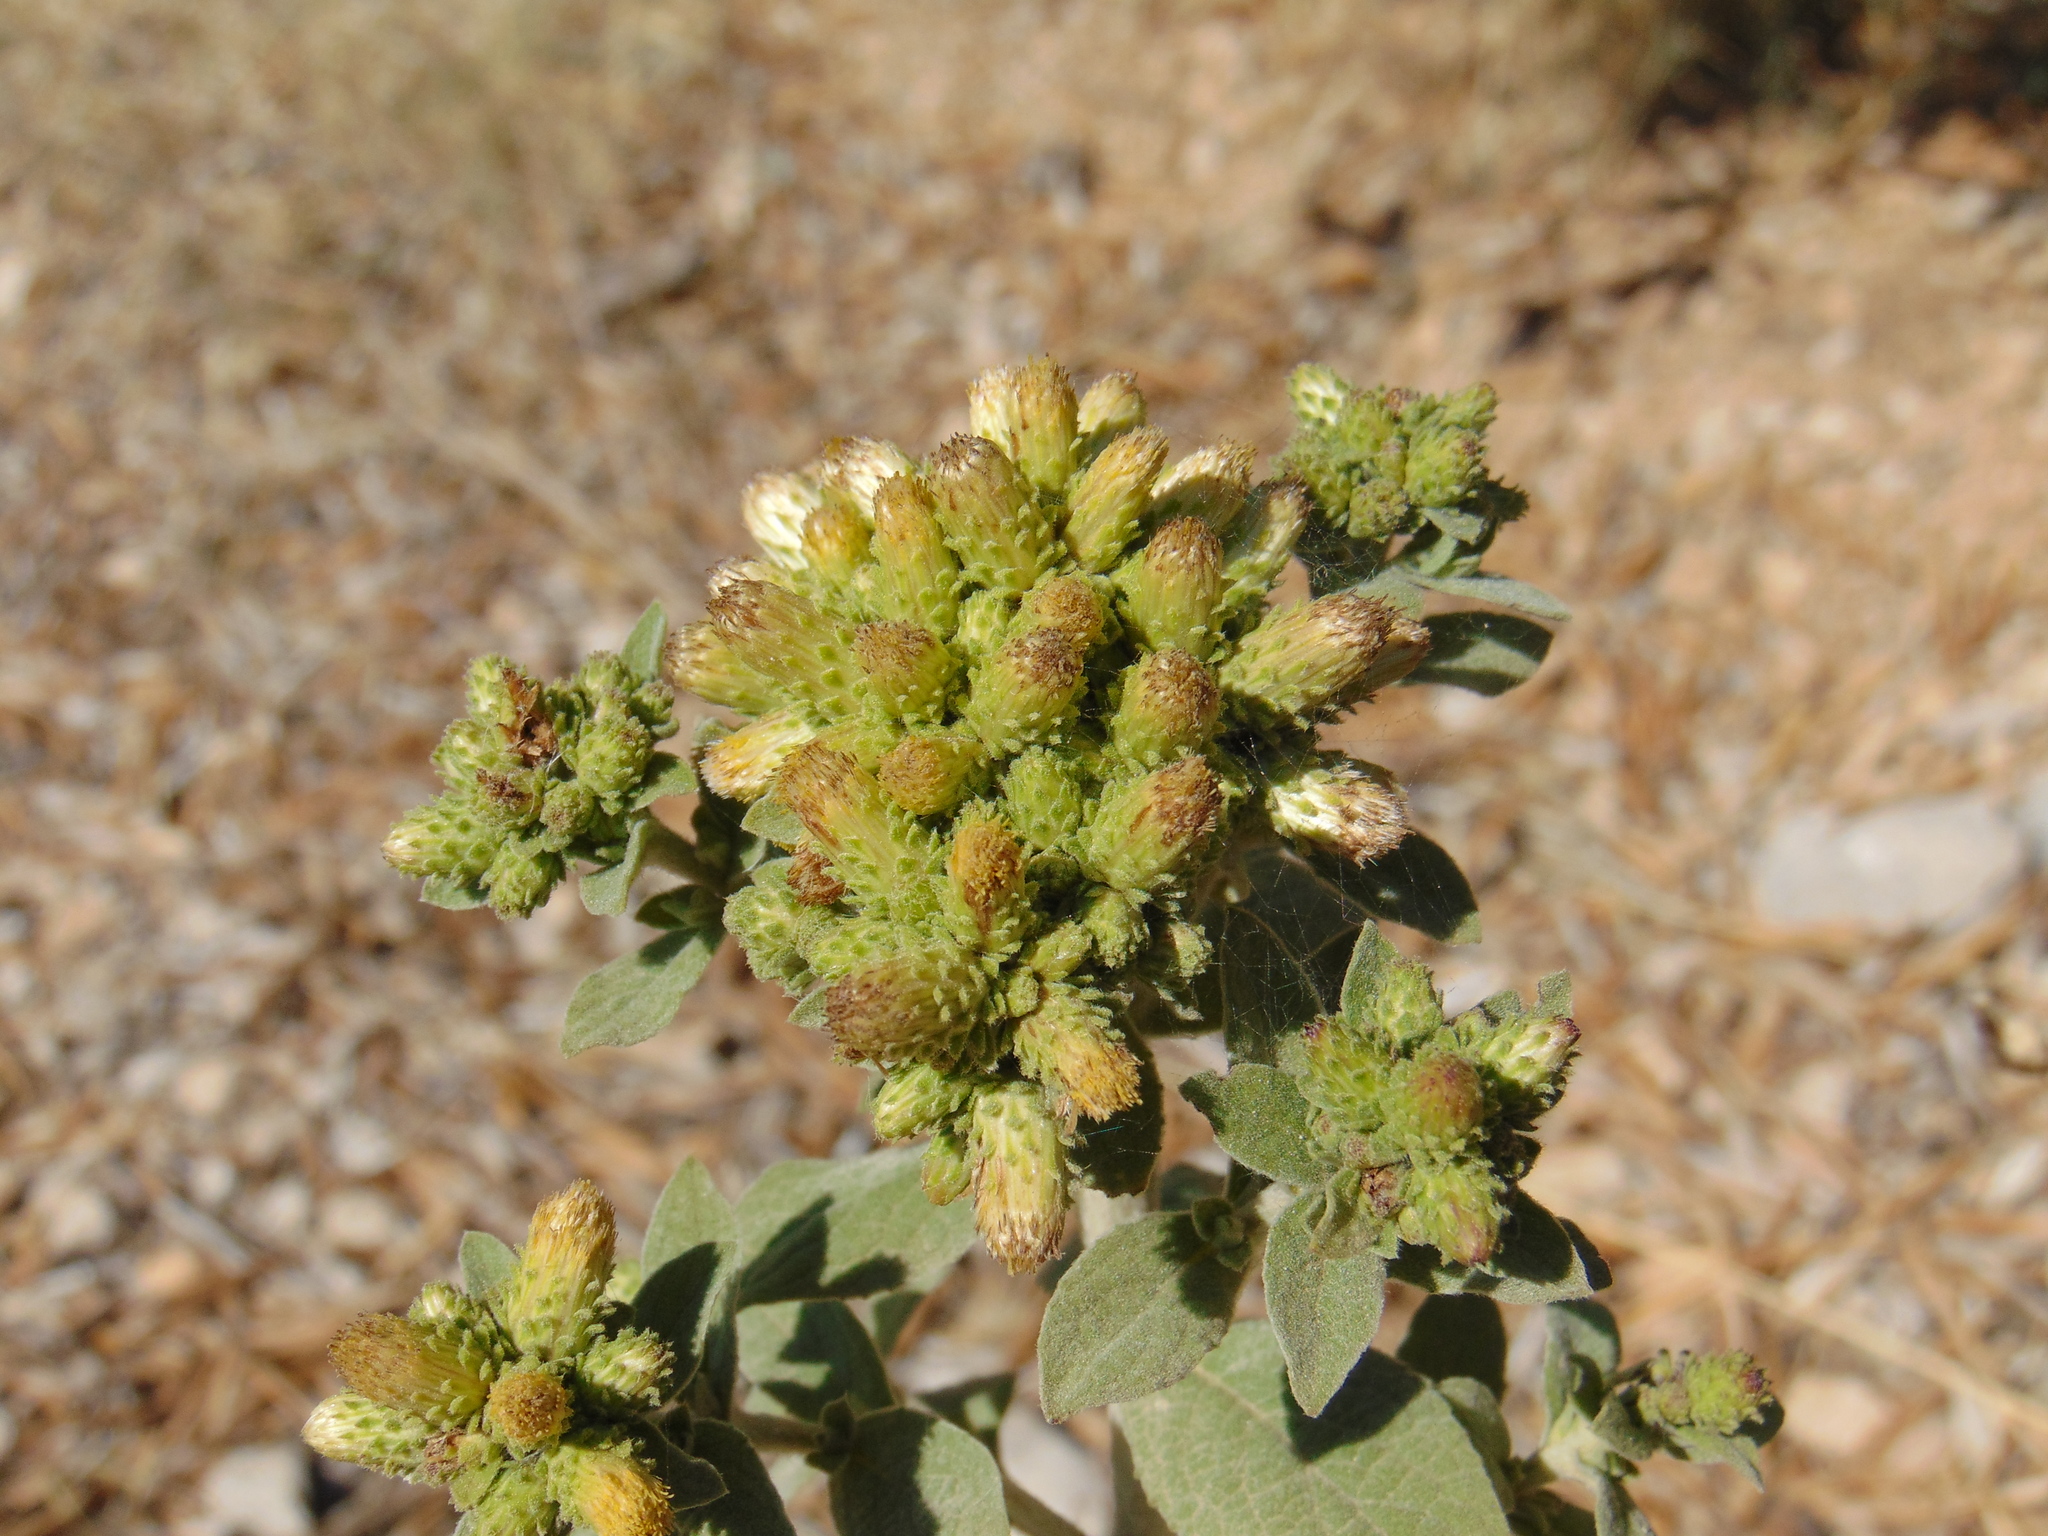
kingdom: Plantae
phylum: Tracheophyta
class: Magnoliopsida
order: Asterales
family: Asteraceae
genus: Pentanema
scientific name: Pentanema squarrosum
